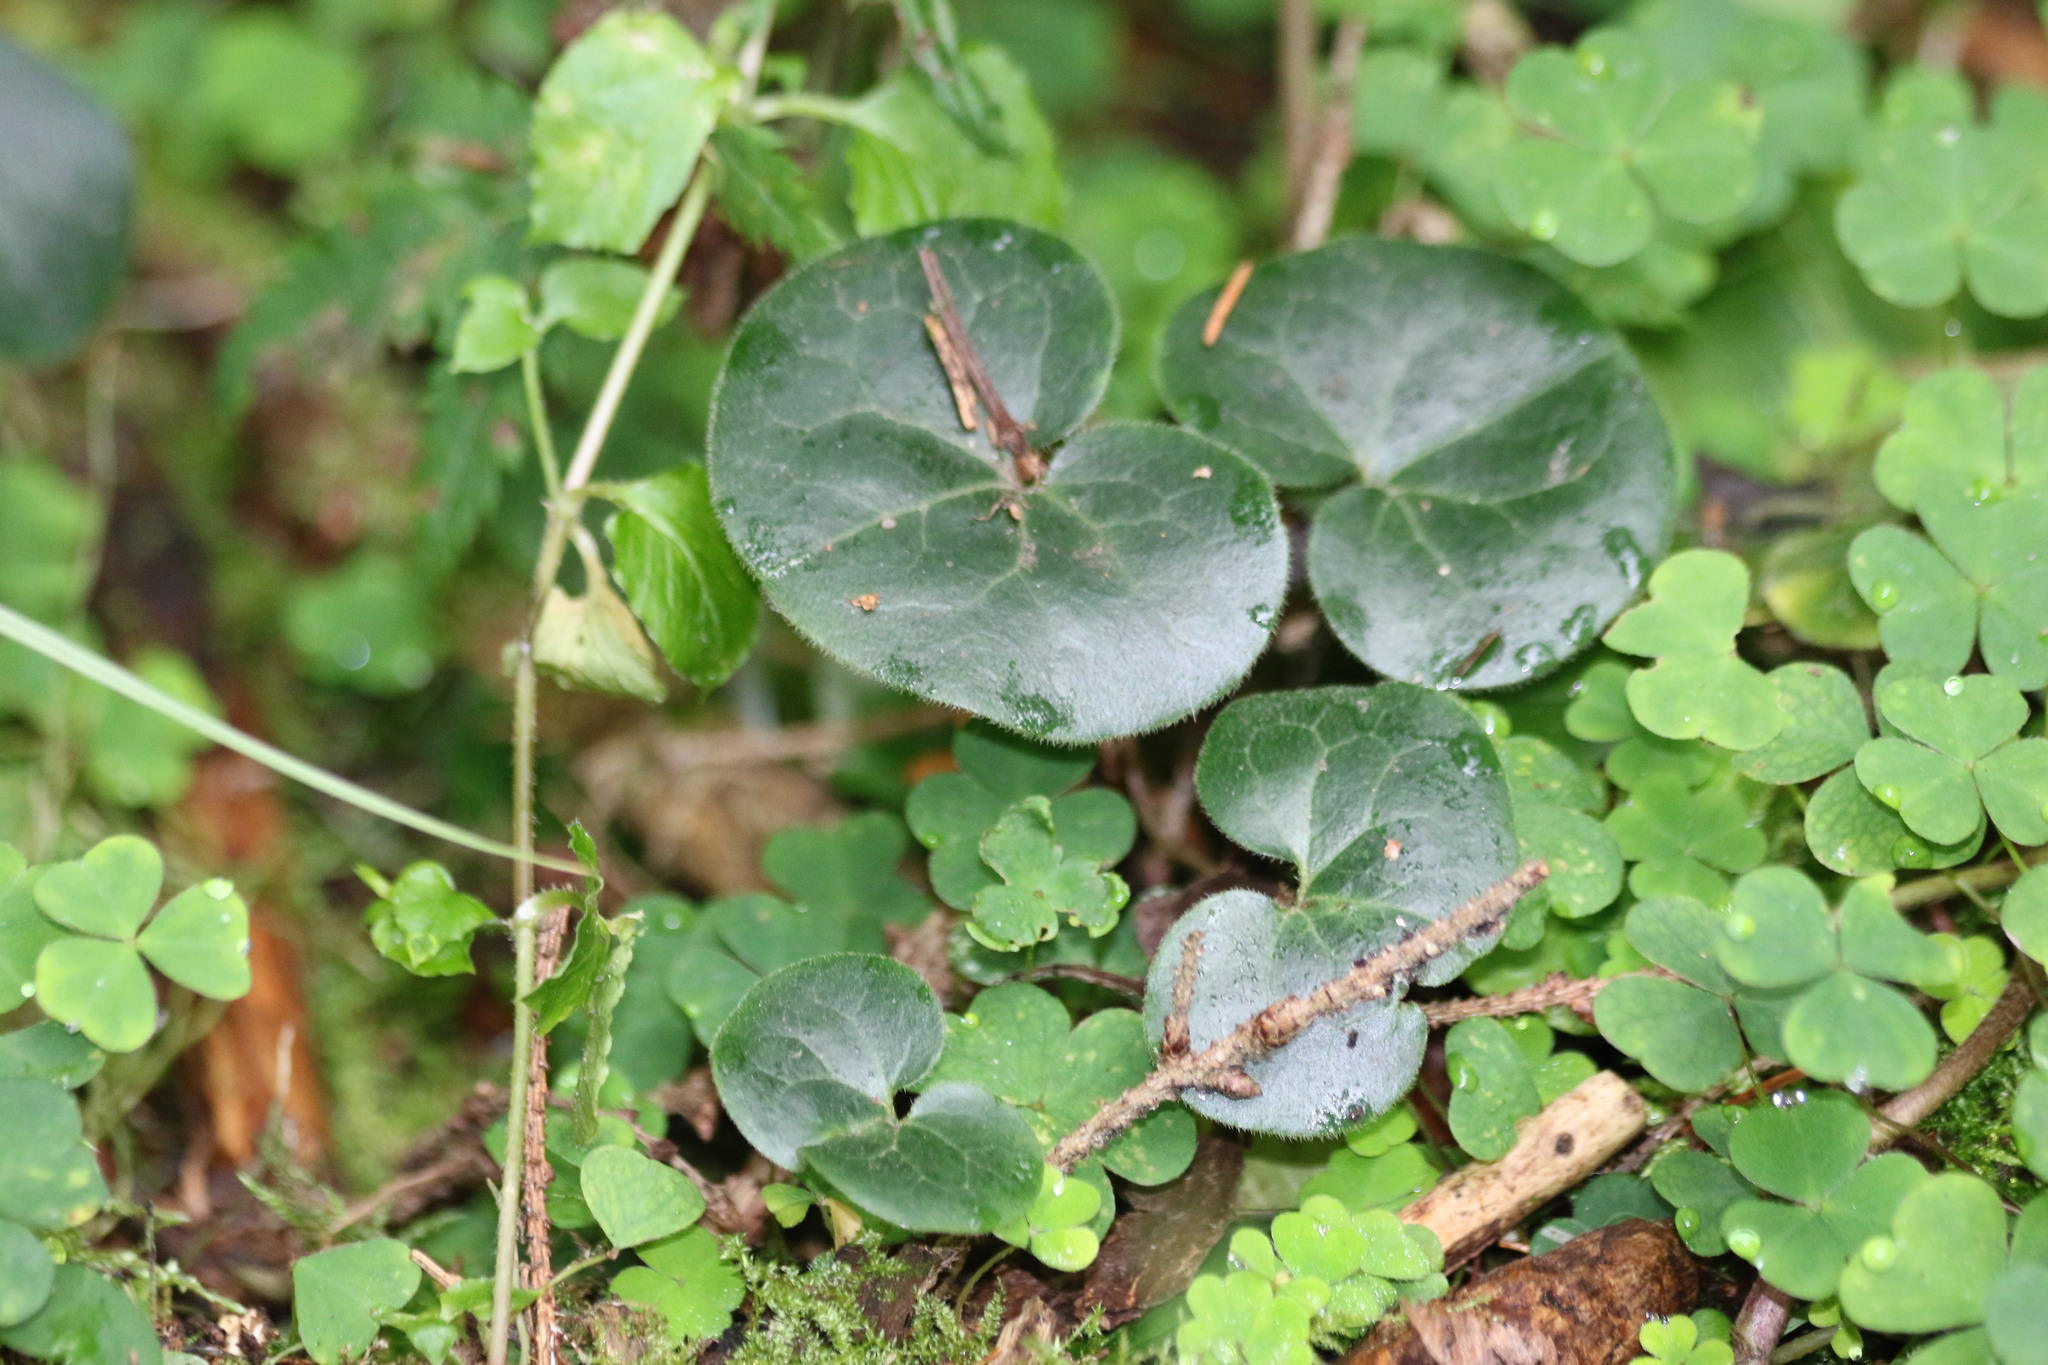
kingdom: Plantae
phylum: Tracheophyta
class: Magnoliopsida
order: Piperales
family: Aristolochiaceae
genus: Asarum
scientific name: Asarum europaeum
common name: Asarabacca
